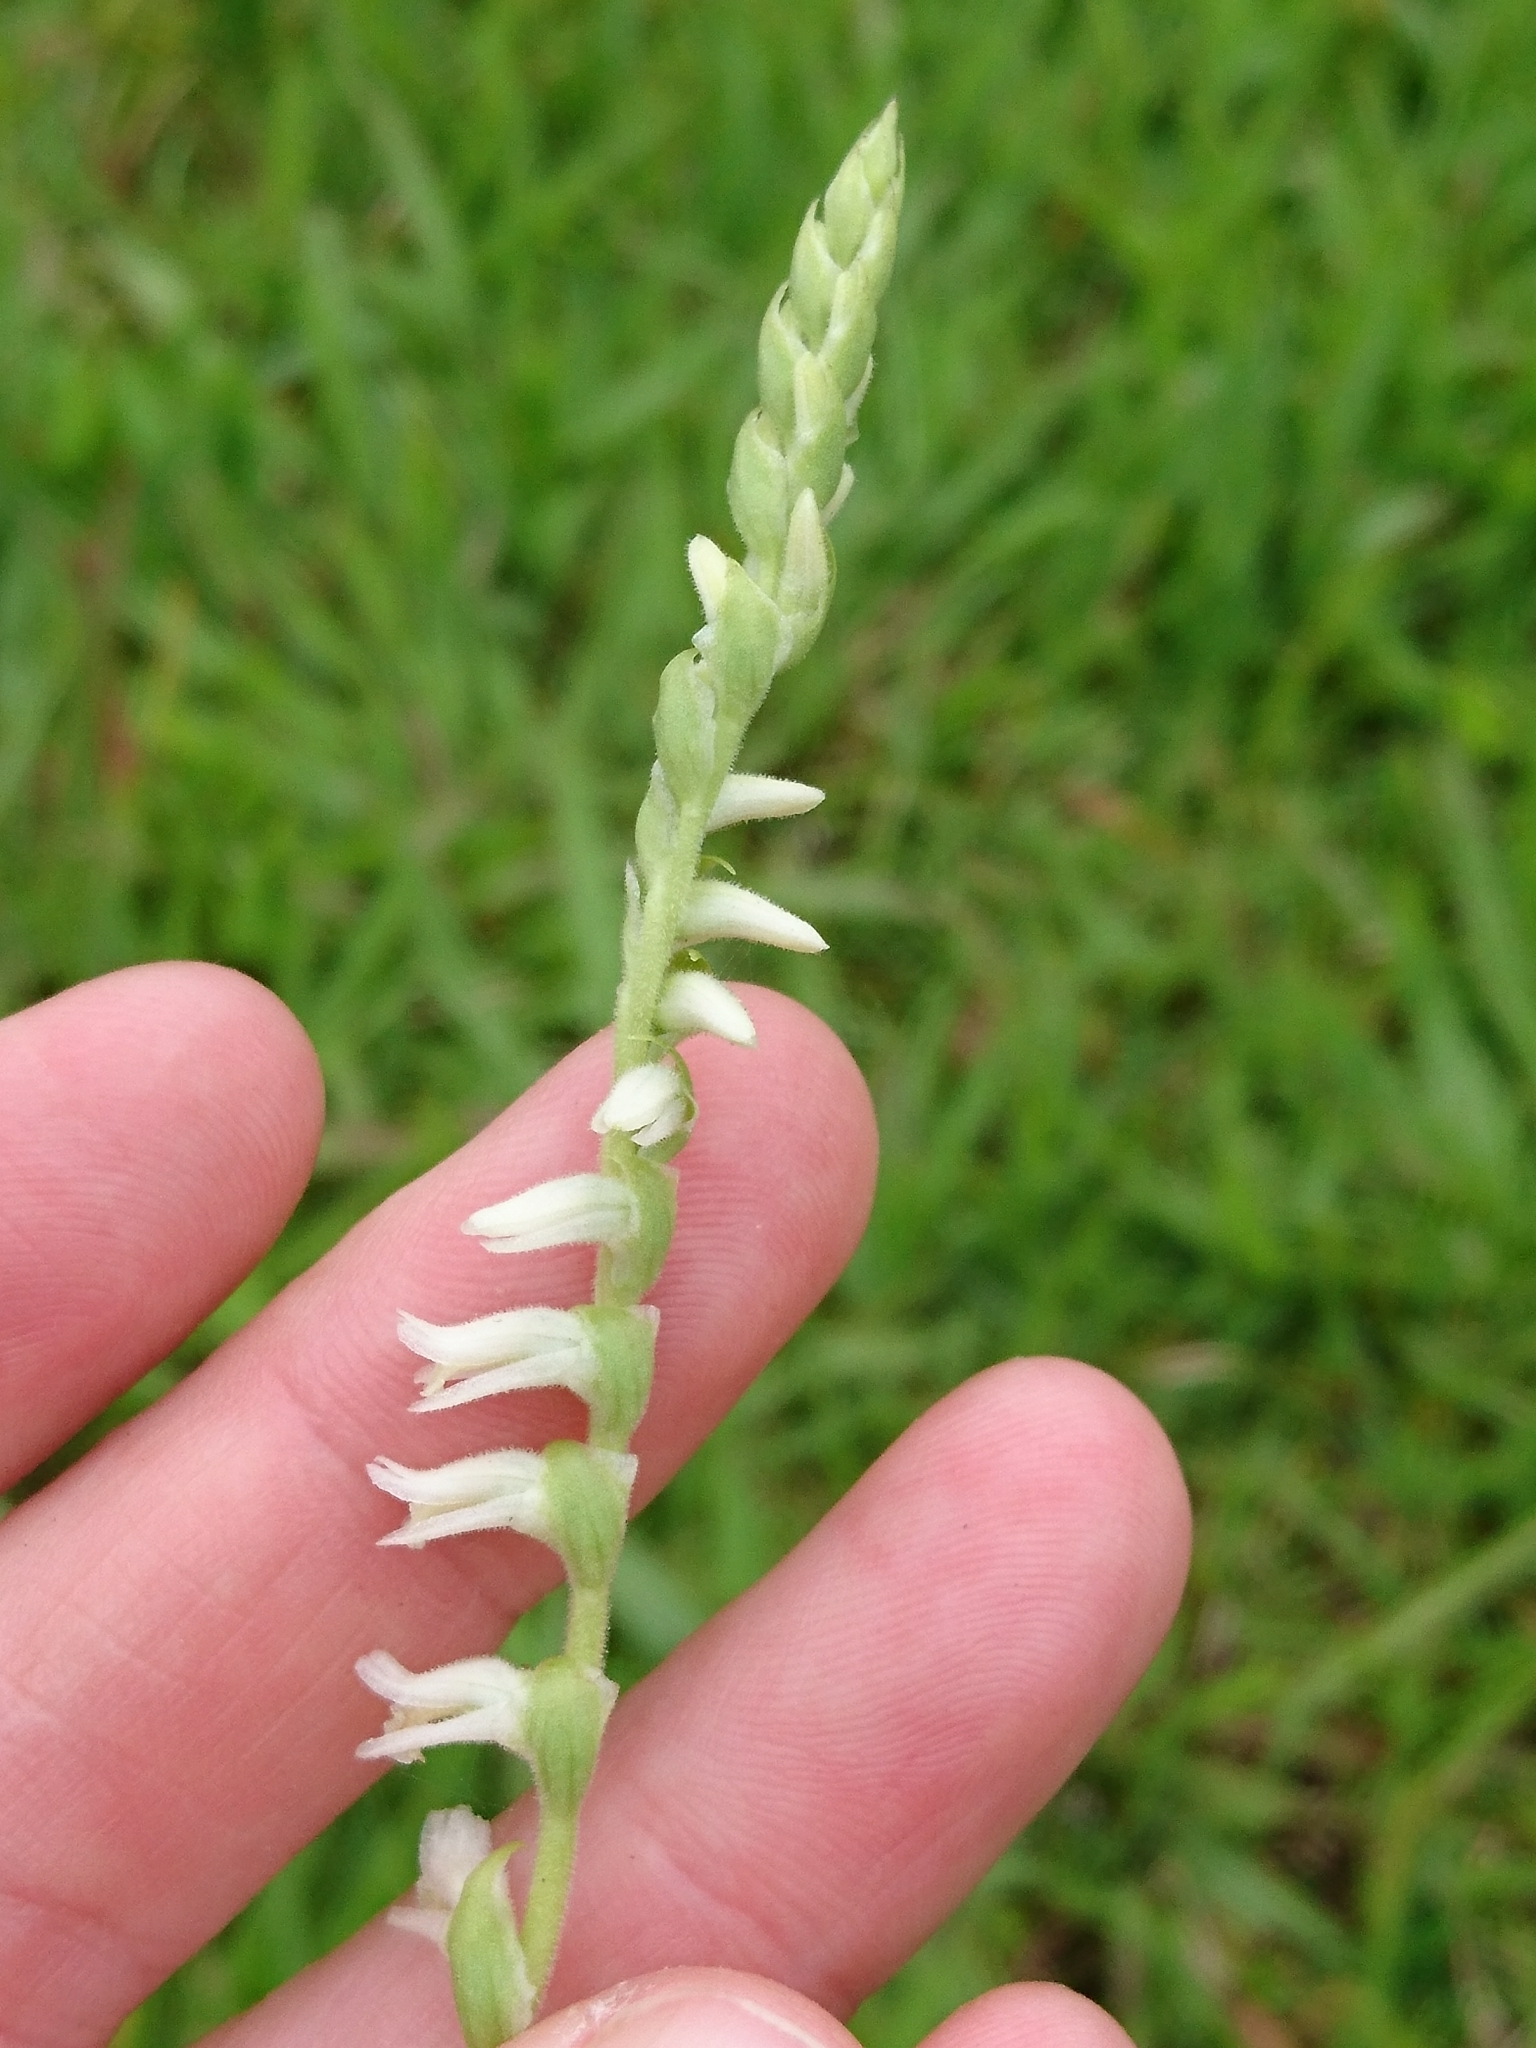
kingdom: Plantae
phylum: Tracheophyta
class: Liliopsida
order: Asparagales
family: Orchidaceae
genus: Spiranthes
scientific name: Spiranthes vernalis
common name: Spring ladies'-tresses
